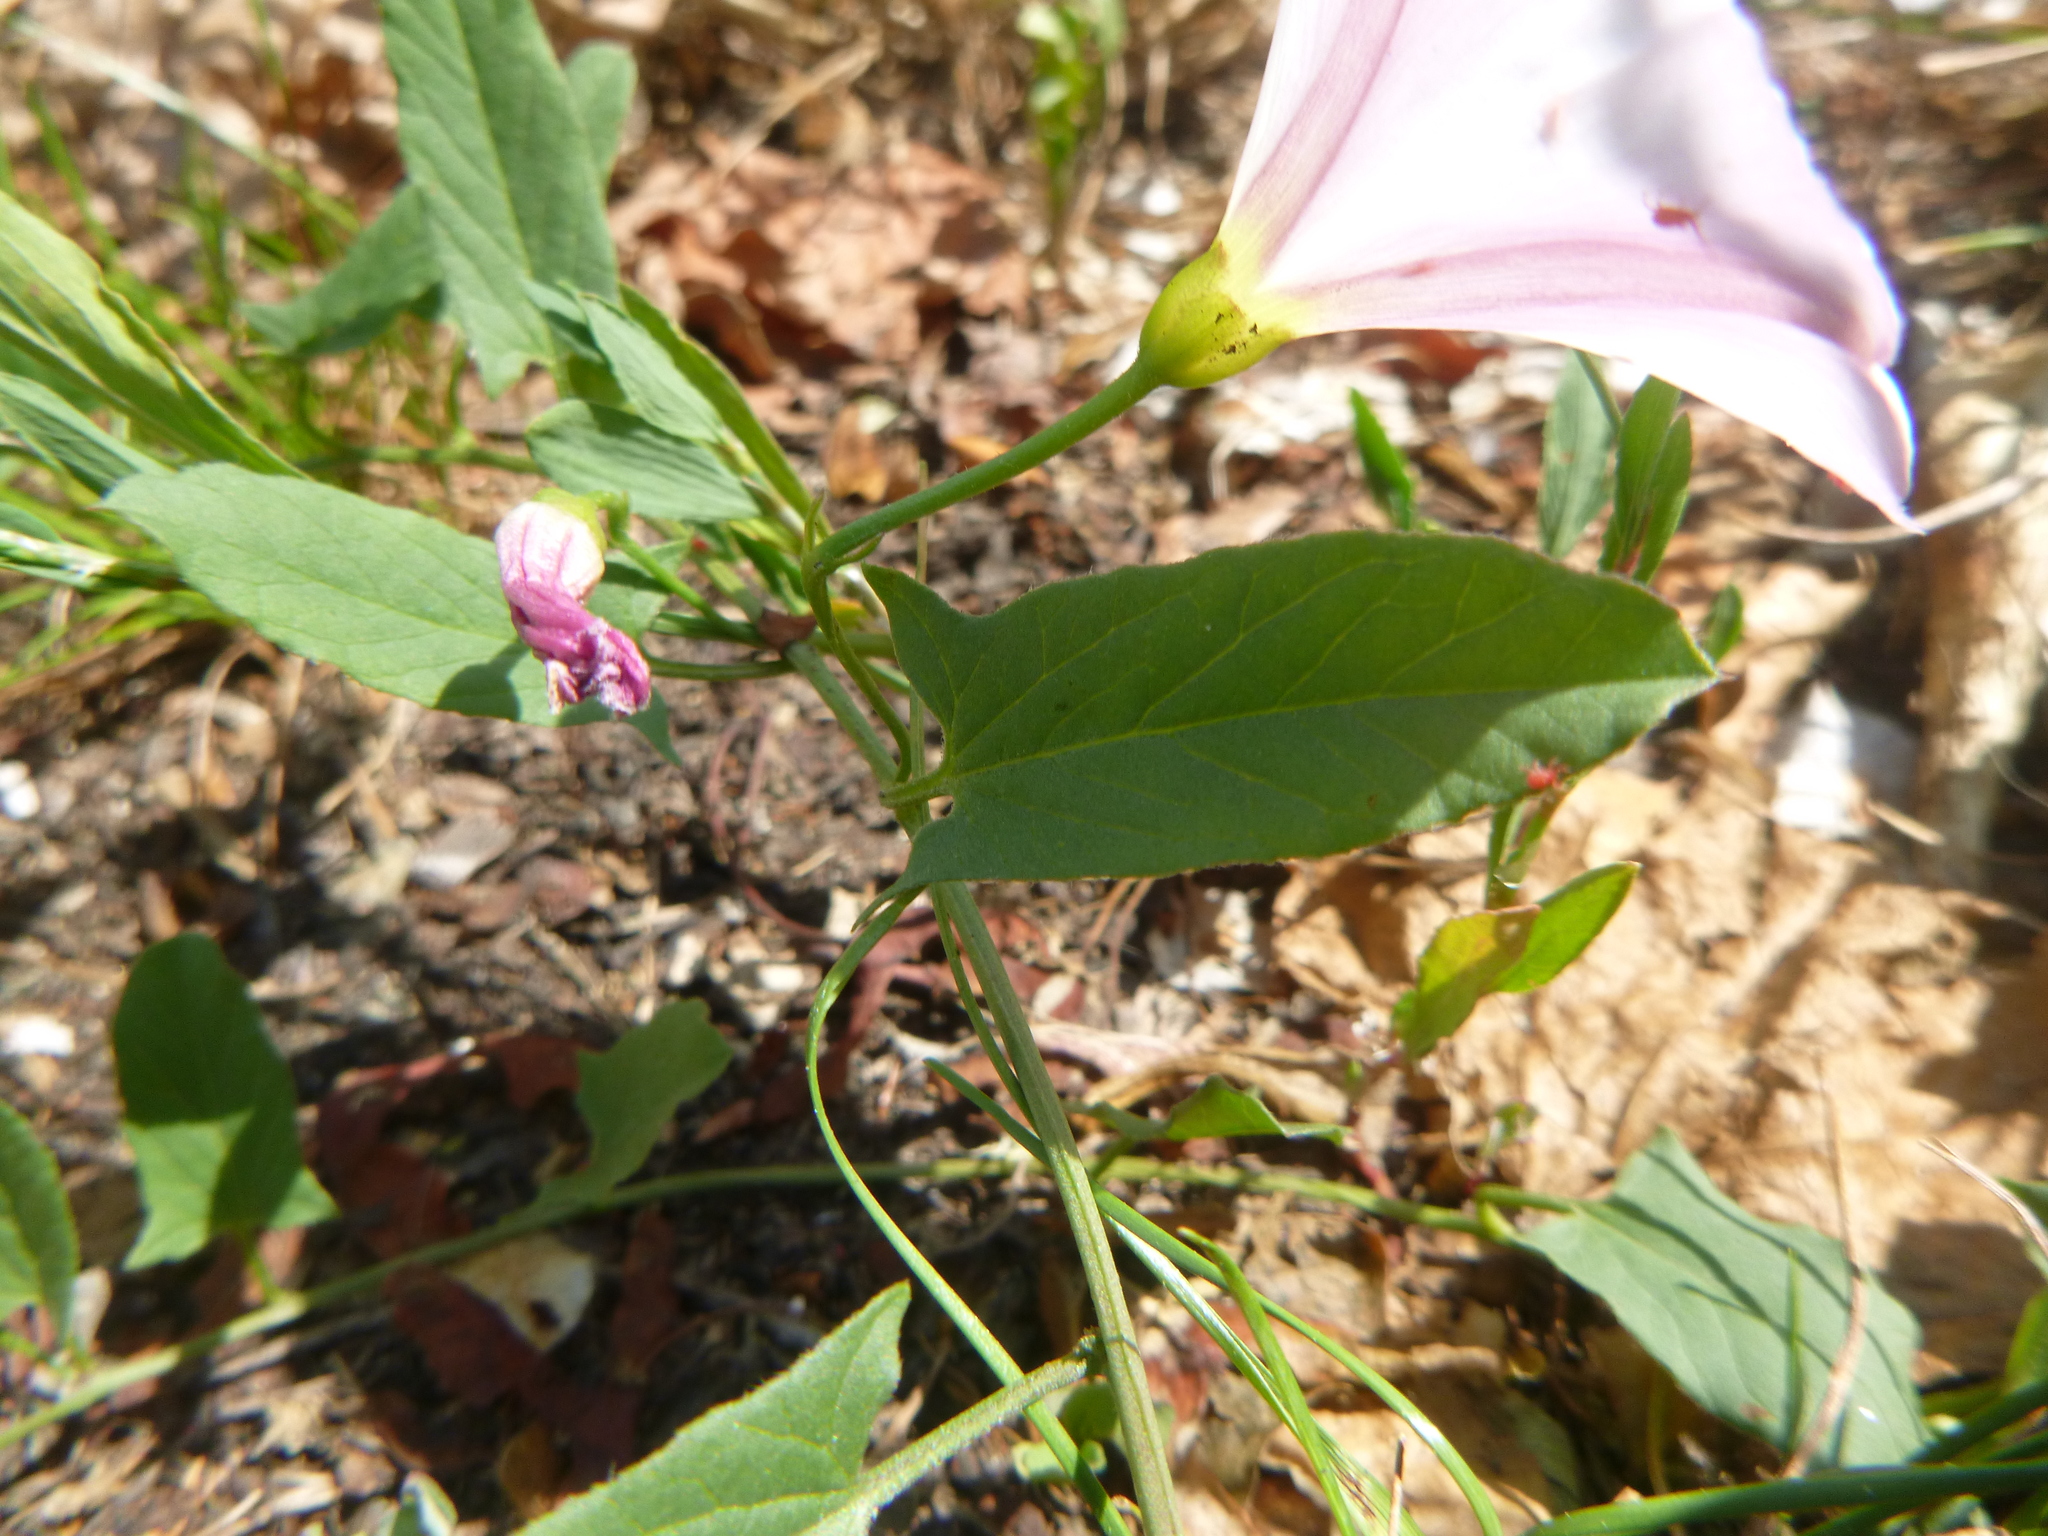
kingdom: Plantae
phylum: Tracheophyta
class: Magnoliopsida
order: Solanales
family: Convolvulaceae
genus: Convolvulus
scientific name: Convolvulus arvensis
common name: Field bindweed
